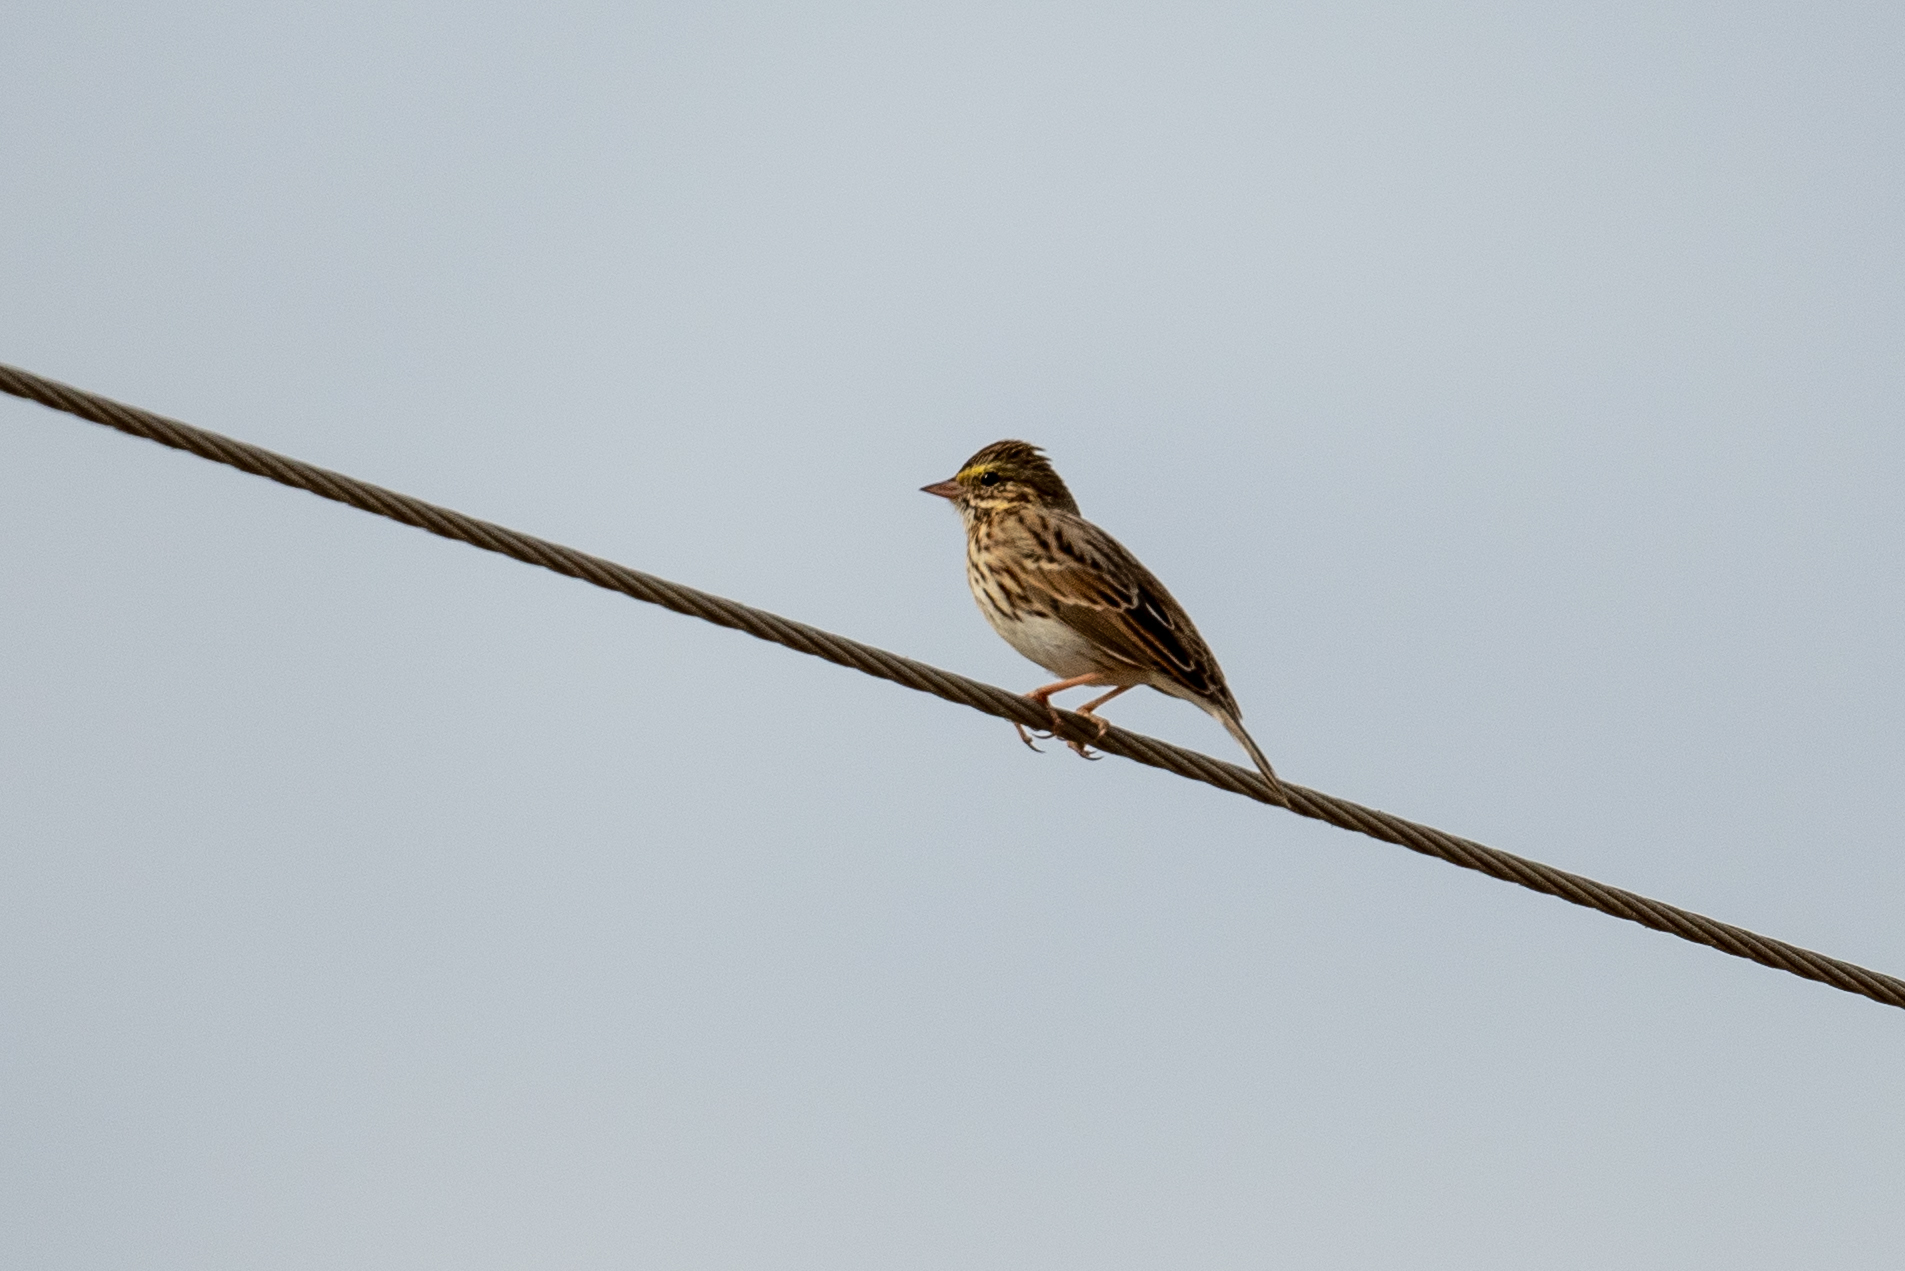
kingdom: Animalia
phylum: Chordata
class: Aves
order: Passeriformes
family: Passerellidae
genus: Passerculus
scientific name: Passerculus sandwichensis
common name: Savannah sparrow
